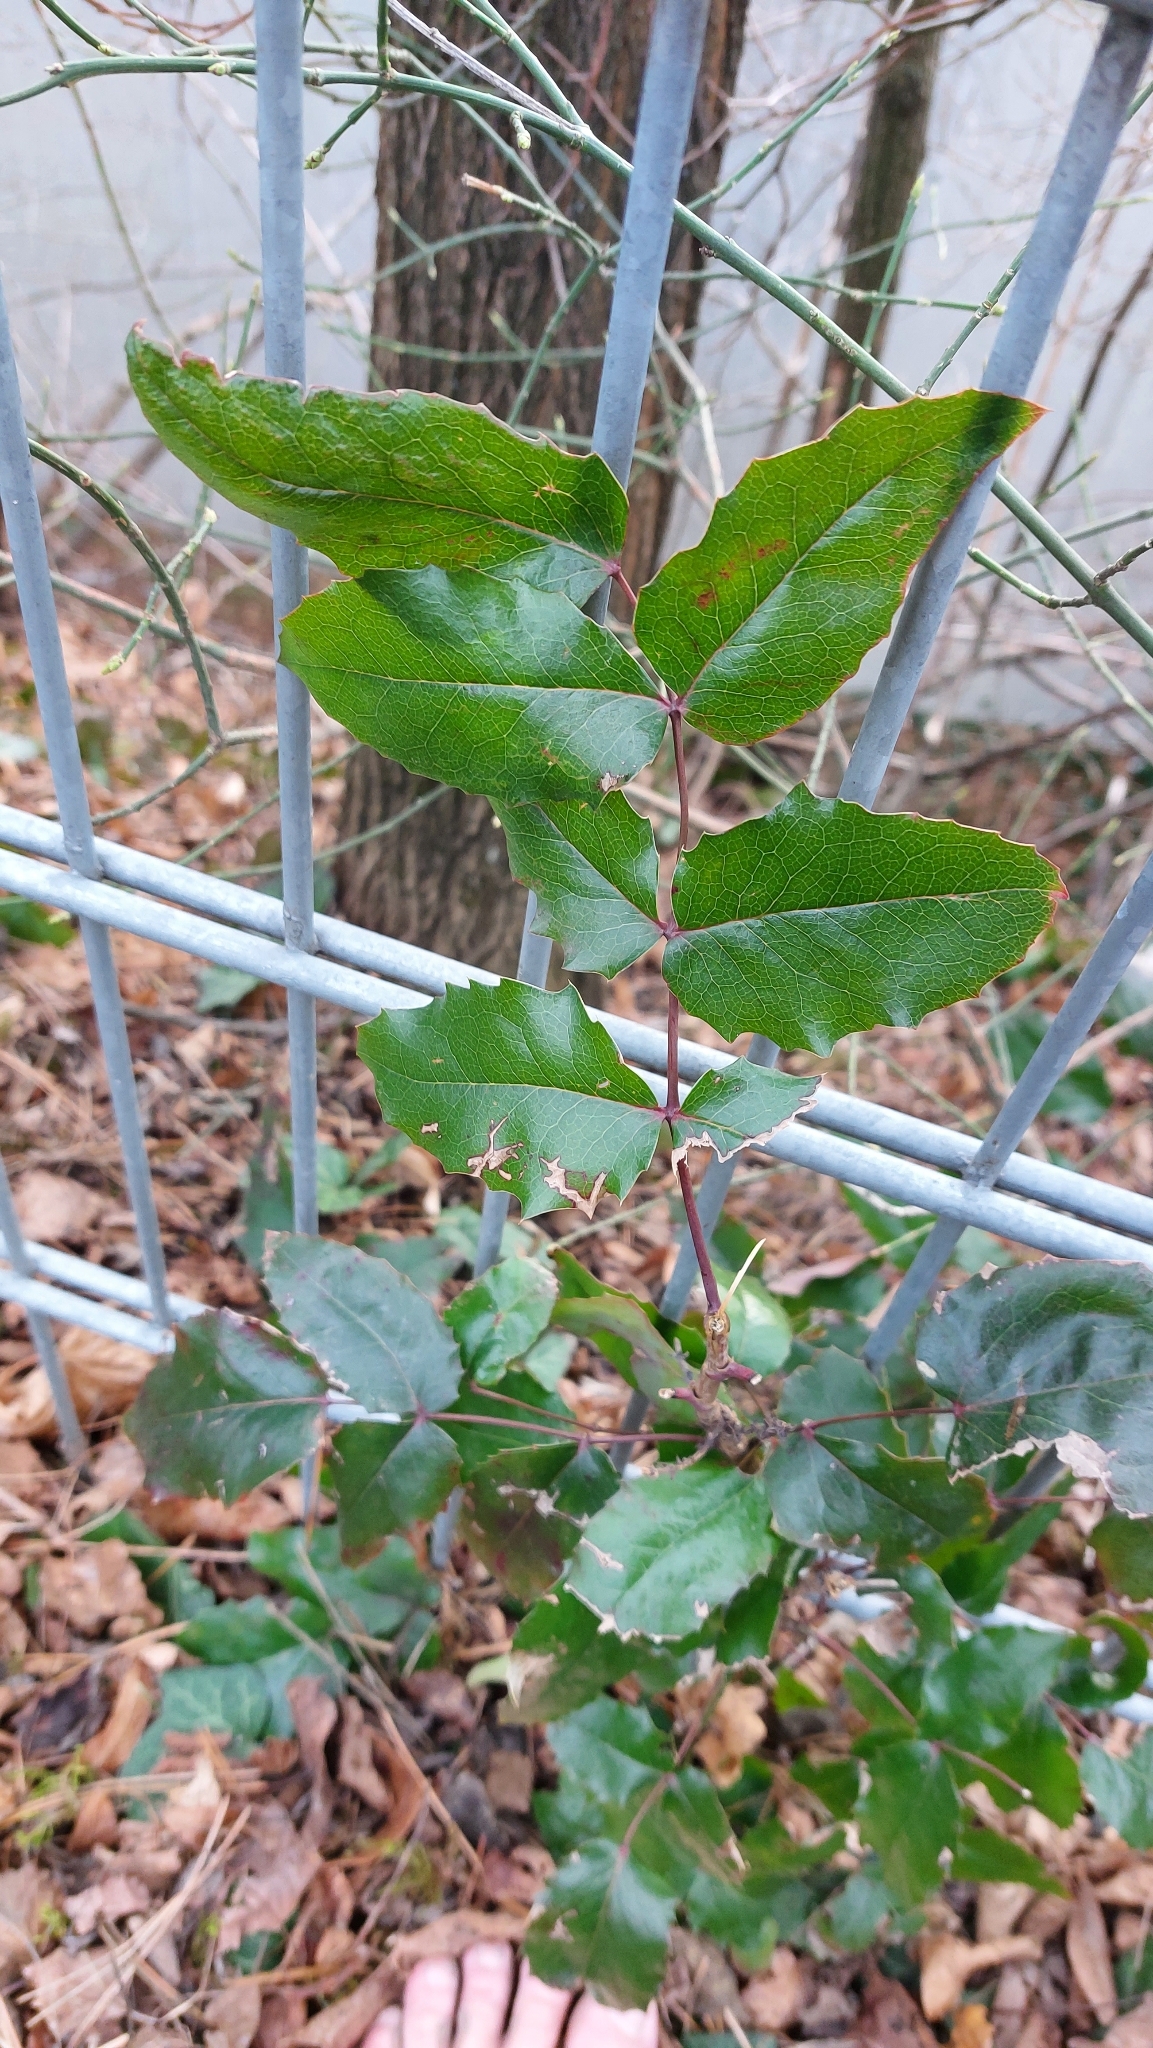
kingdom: Plantae
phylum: Tracheophyta
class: Magnoliopsida
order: Ranunculales
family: Berberidaceae
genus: Mahonia
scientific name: Mahonia aquifolium
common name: Oregon-grape
